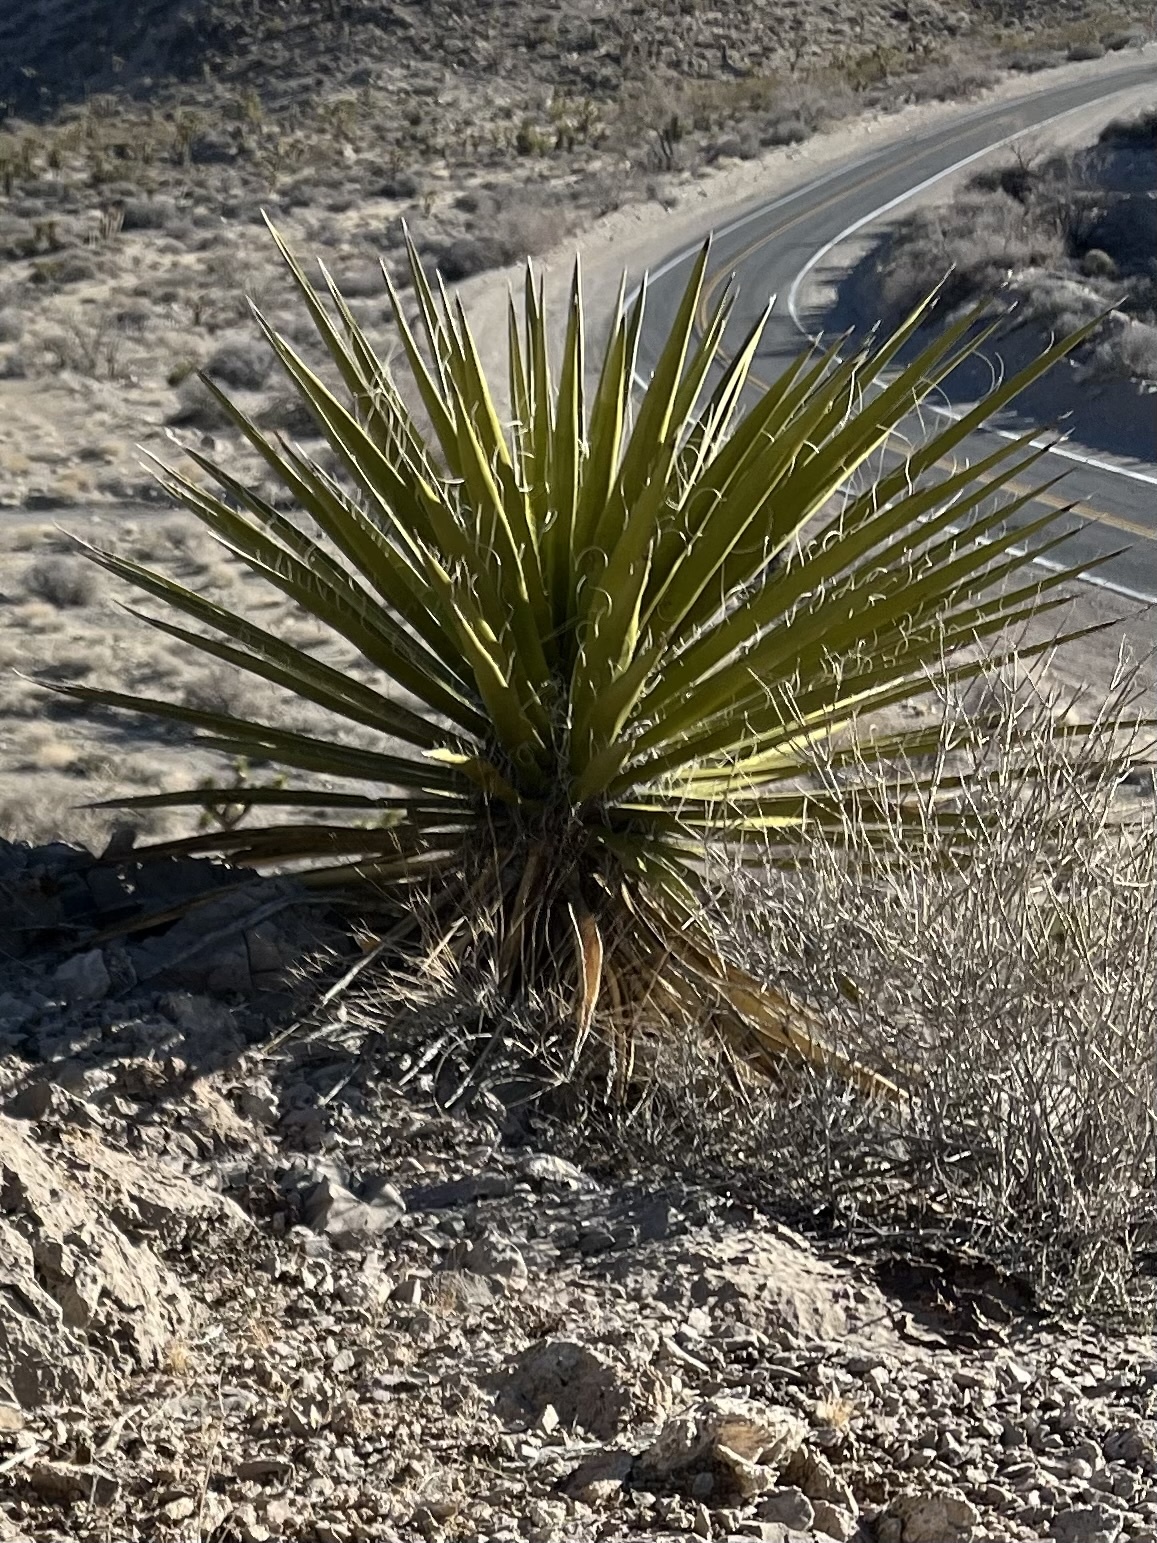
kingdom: Plantae
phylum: Tracheophyta
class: Liliopsida
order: Asparagales
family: Asparagaceae
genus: Yucca
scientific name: Yucca schidigera
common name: Mojave yucca
